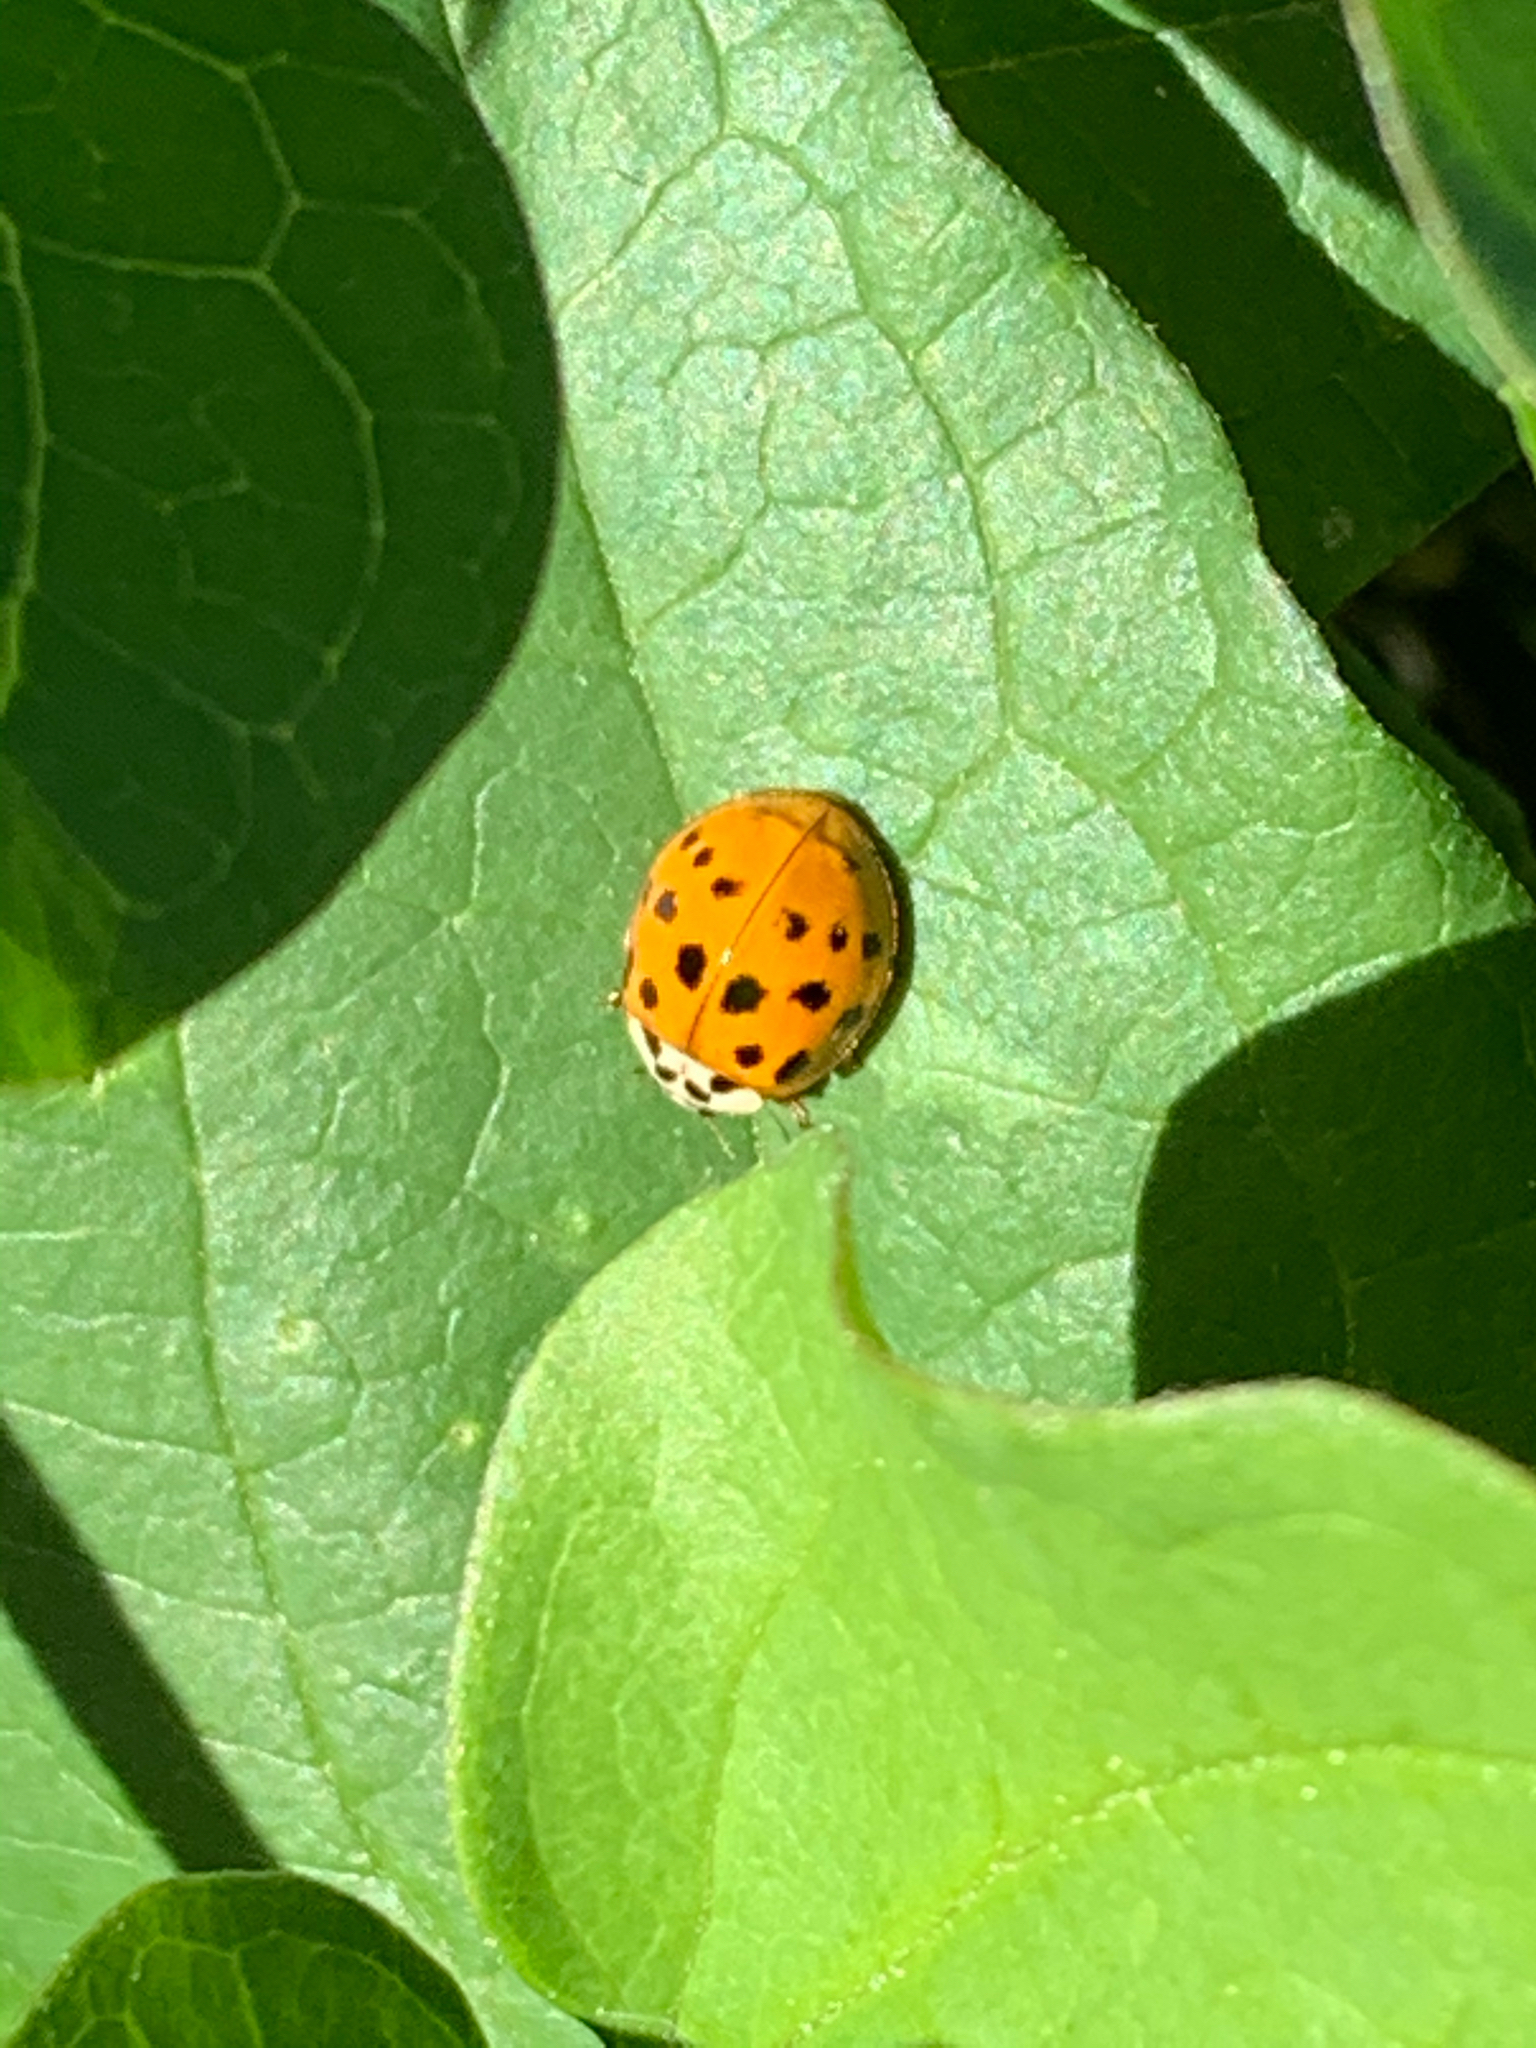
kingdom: Animalia
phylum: Arthropoda
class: Insecta
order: Coleoptera
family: Coccinellidae
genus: Harmonia
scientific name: Harmonia axyridis
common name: Harlequin ladybird
